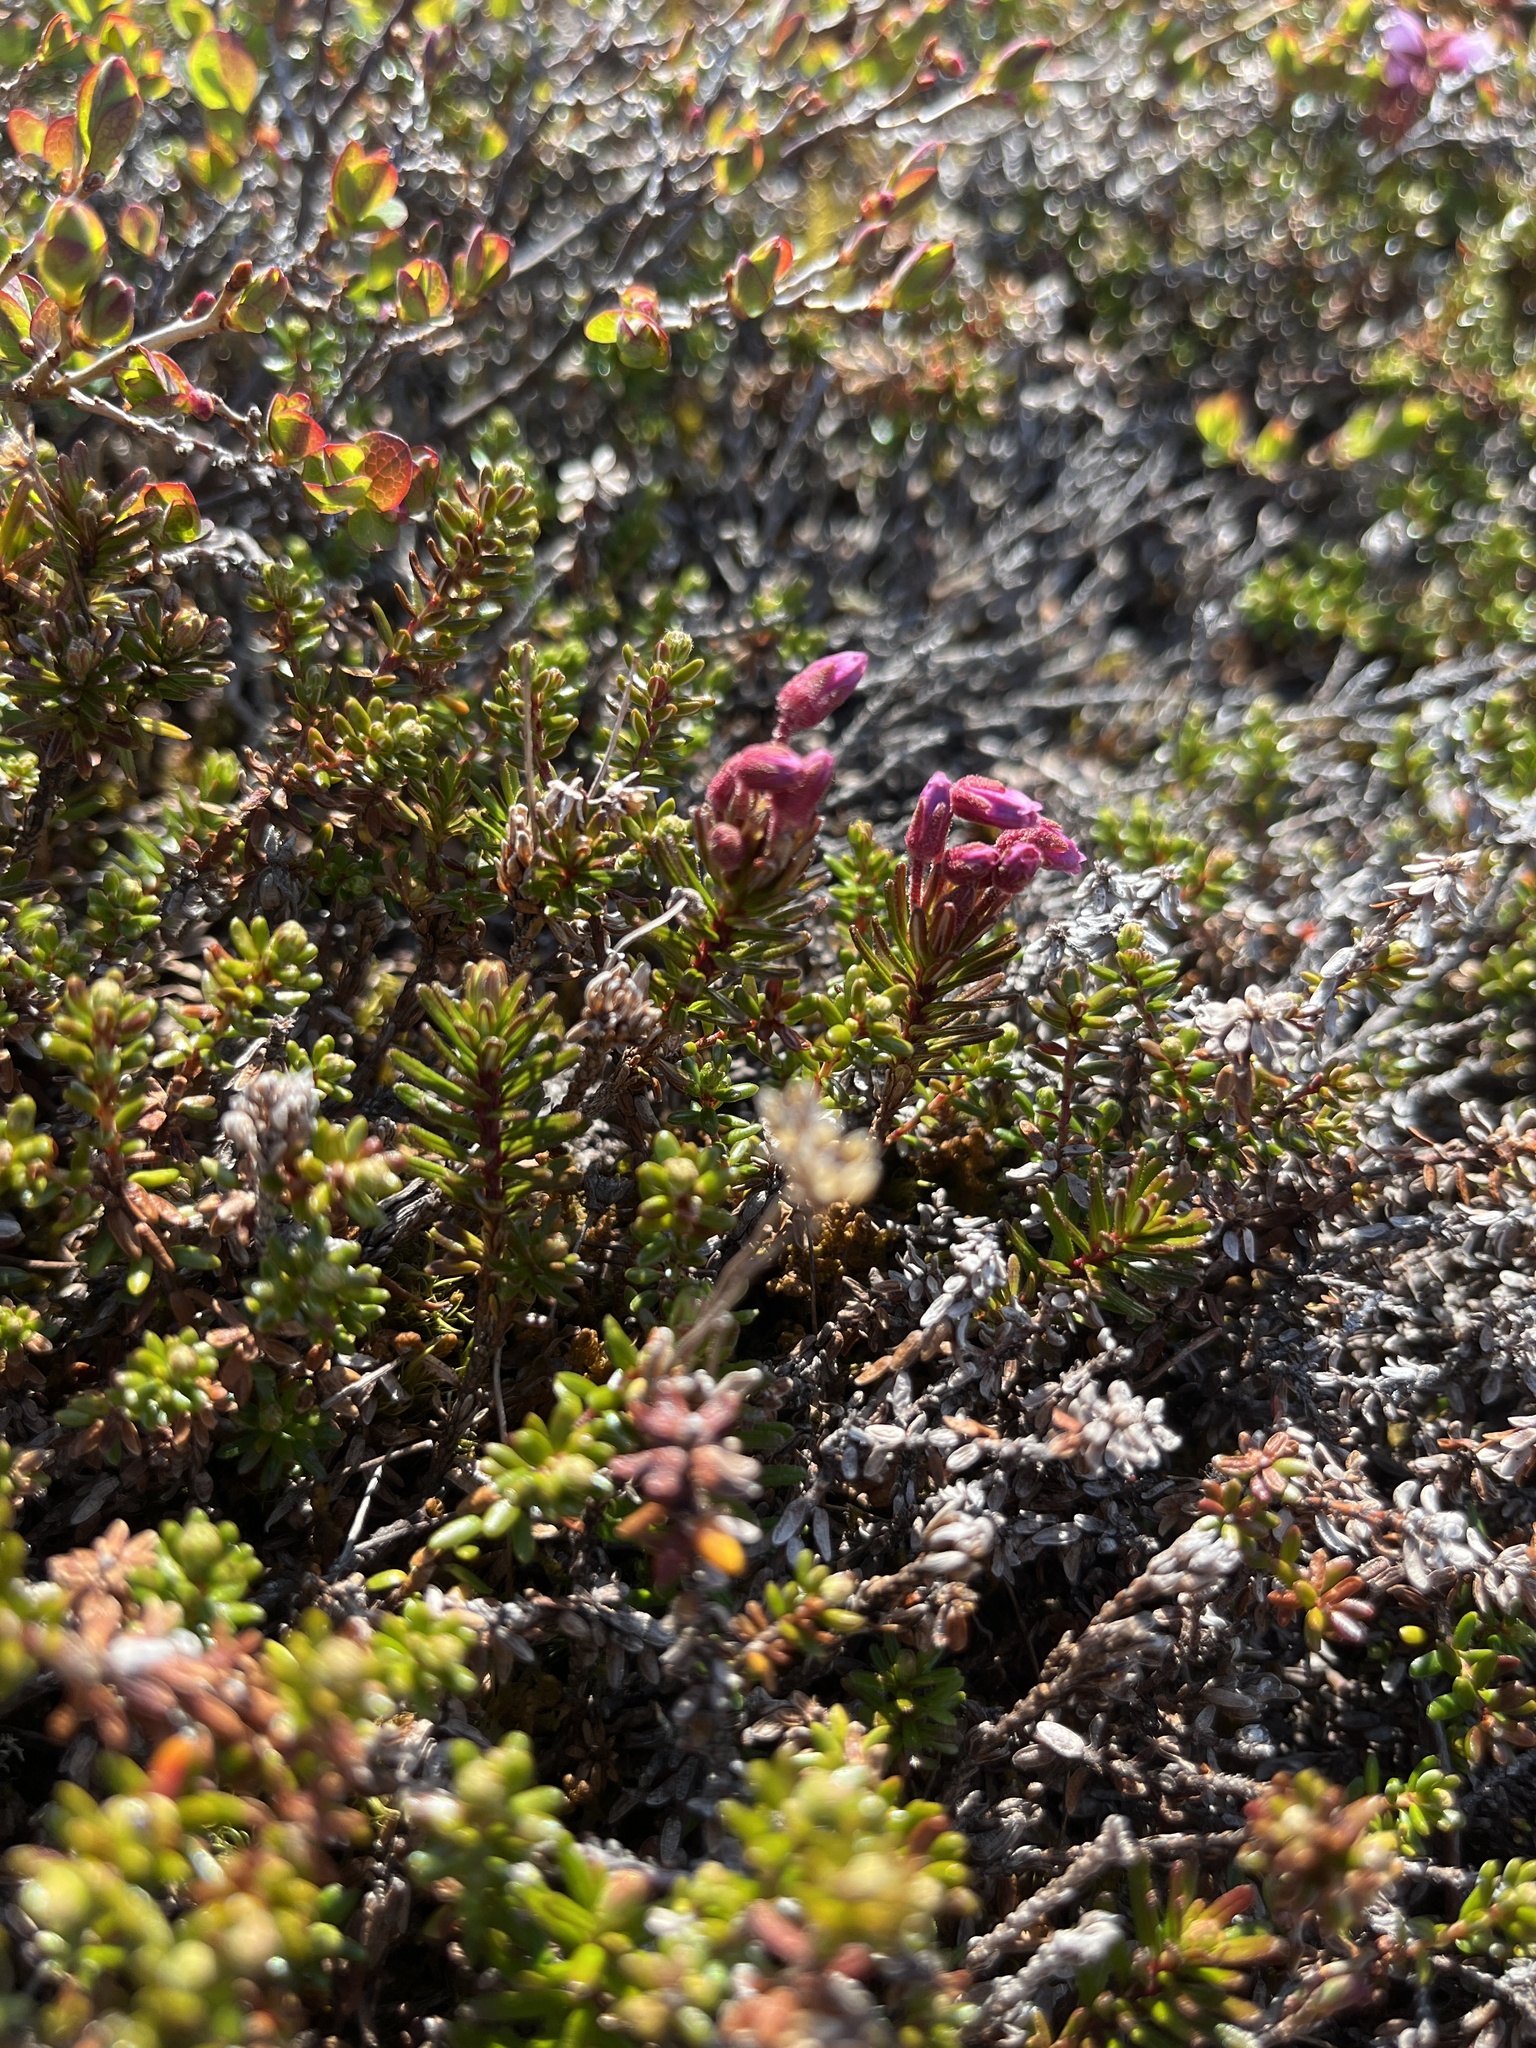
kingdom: Plantae
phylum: Tracheophyta
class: Magnoliopsida
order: Ericales
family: Ericaceae
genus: Phyllodoce
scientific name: Phyllodoce caerulea
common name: Blue heath
